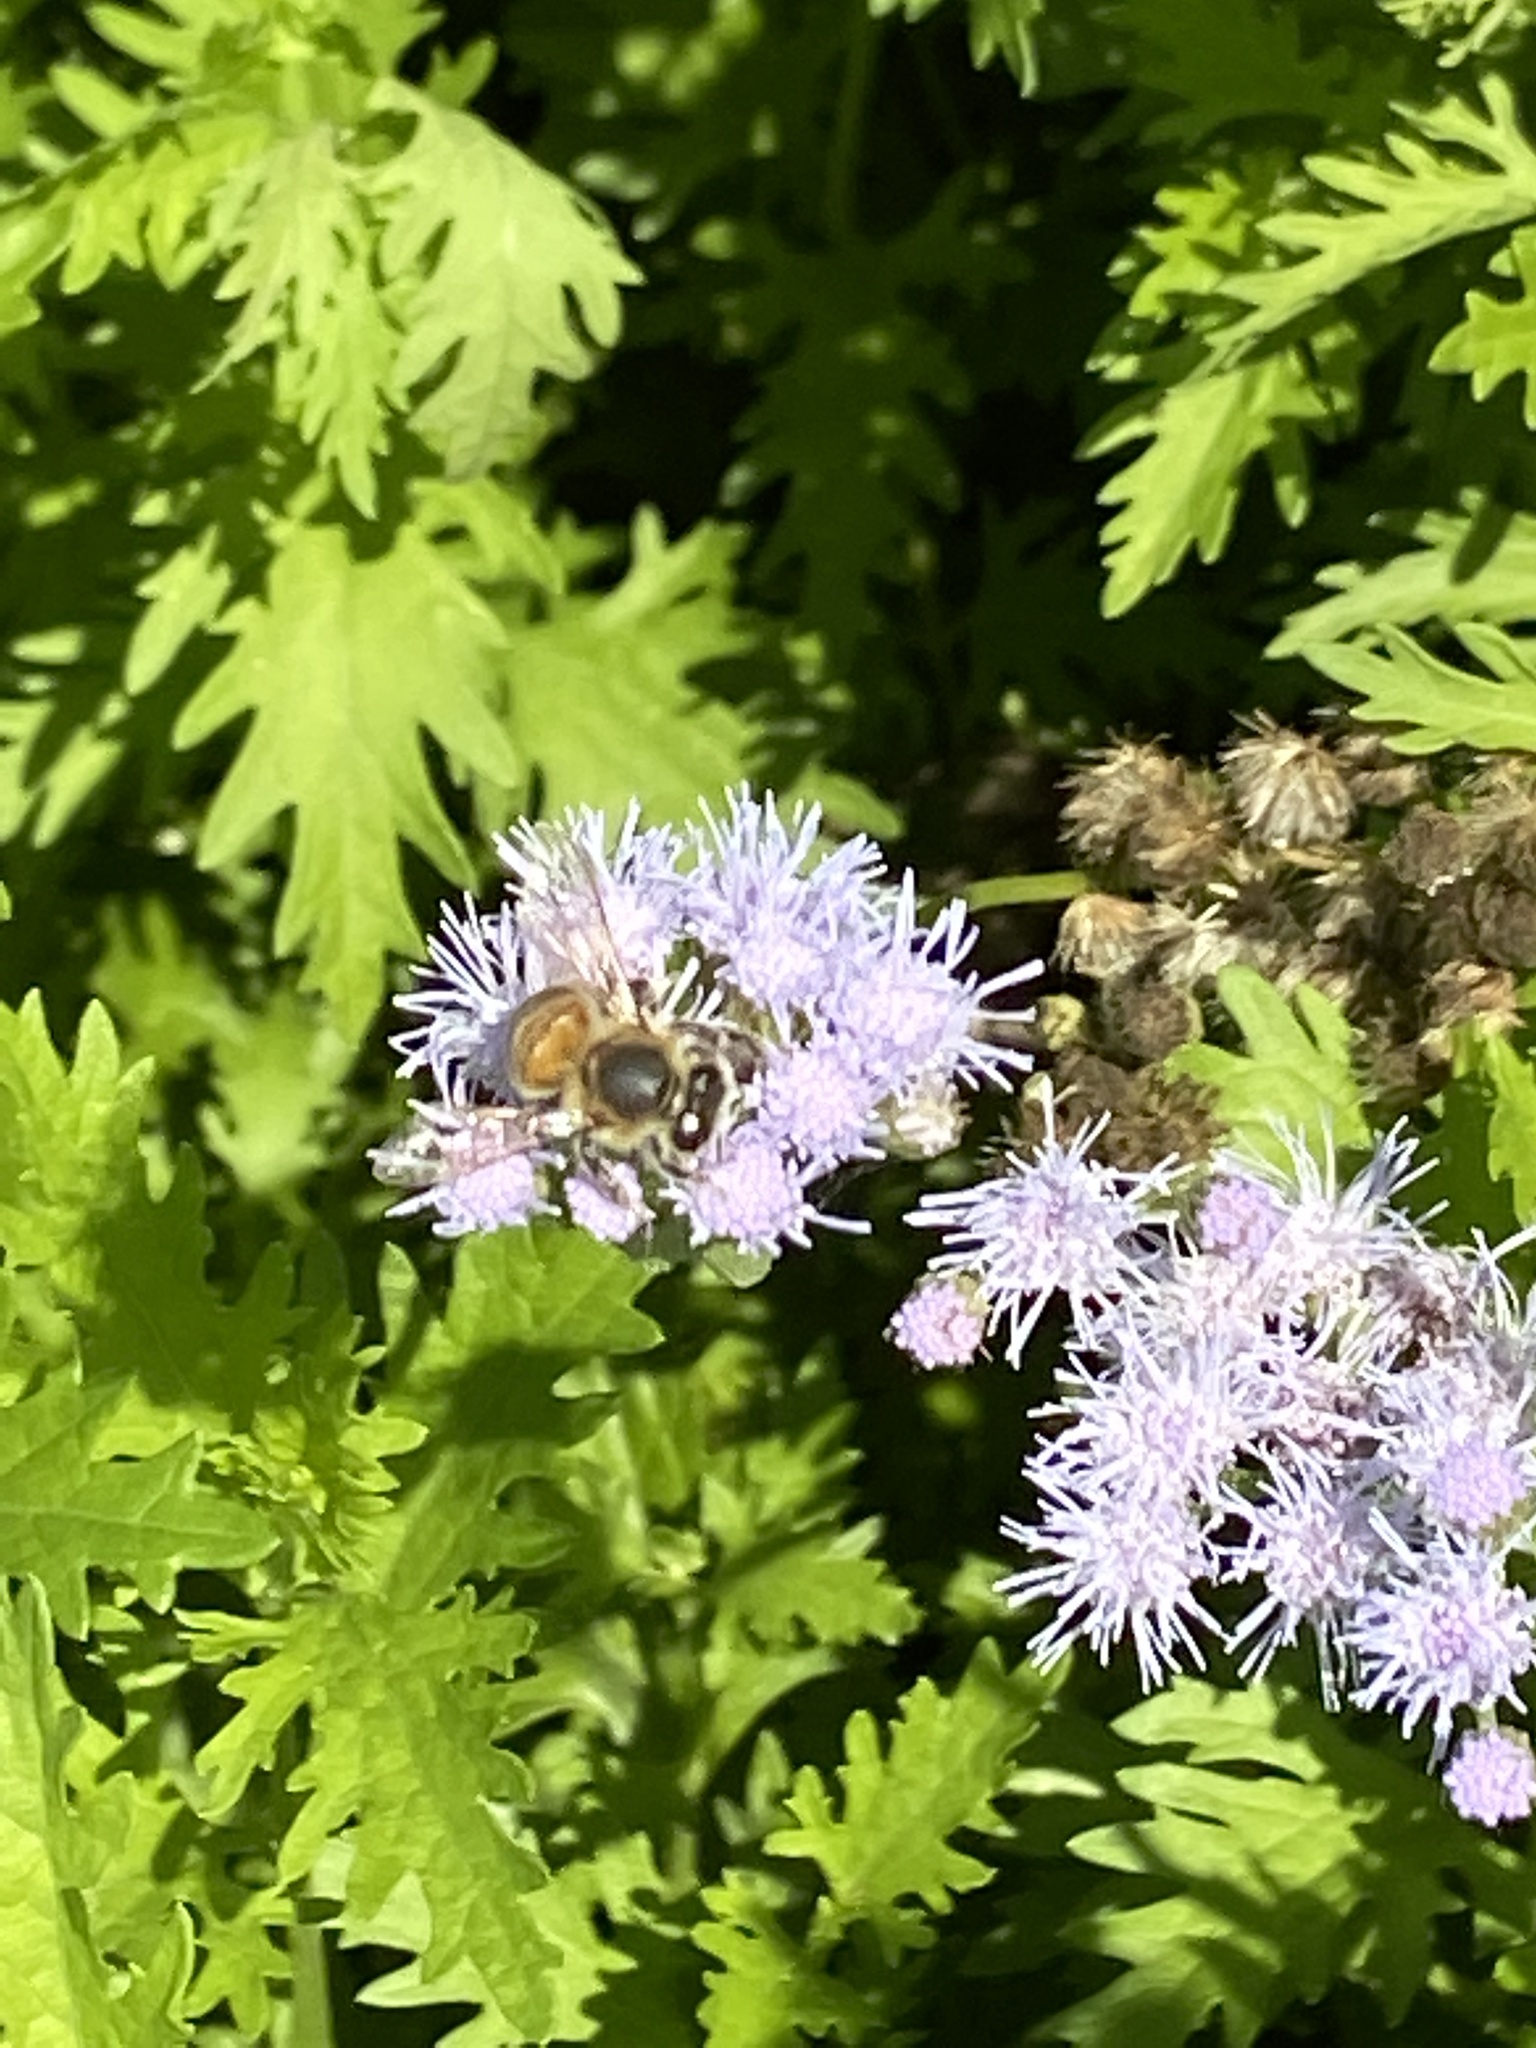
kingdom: Animalia
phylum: Arthropoda
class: Insecta
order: Hymenoptera
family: Apidae
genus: Apis
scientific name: Apis mellifera
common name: Honey bee
